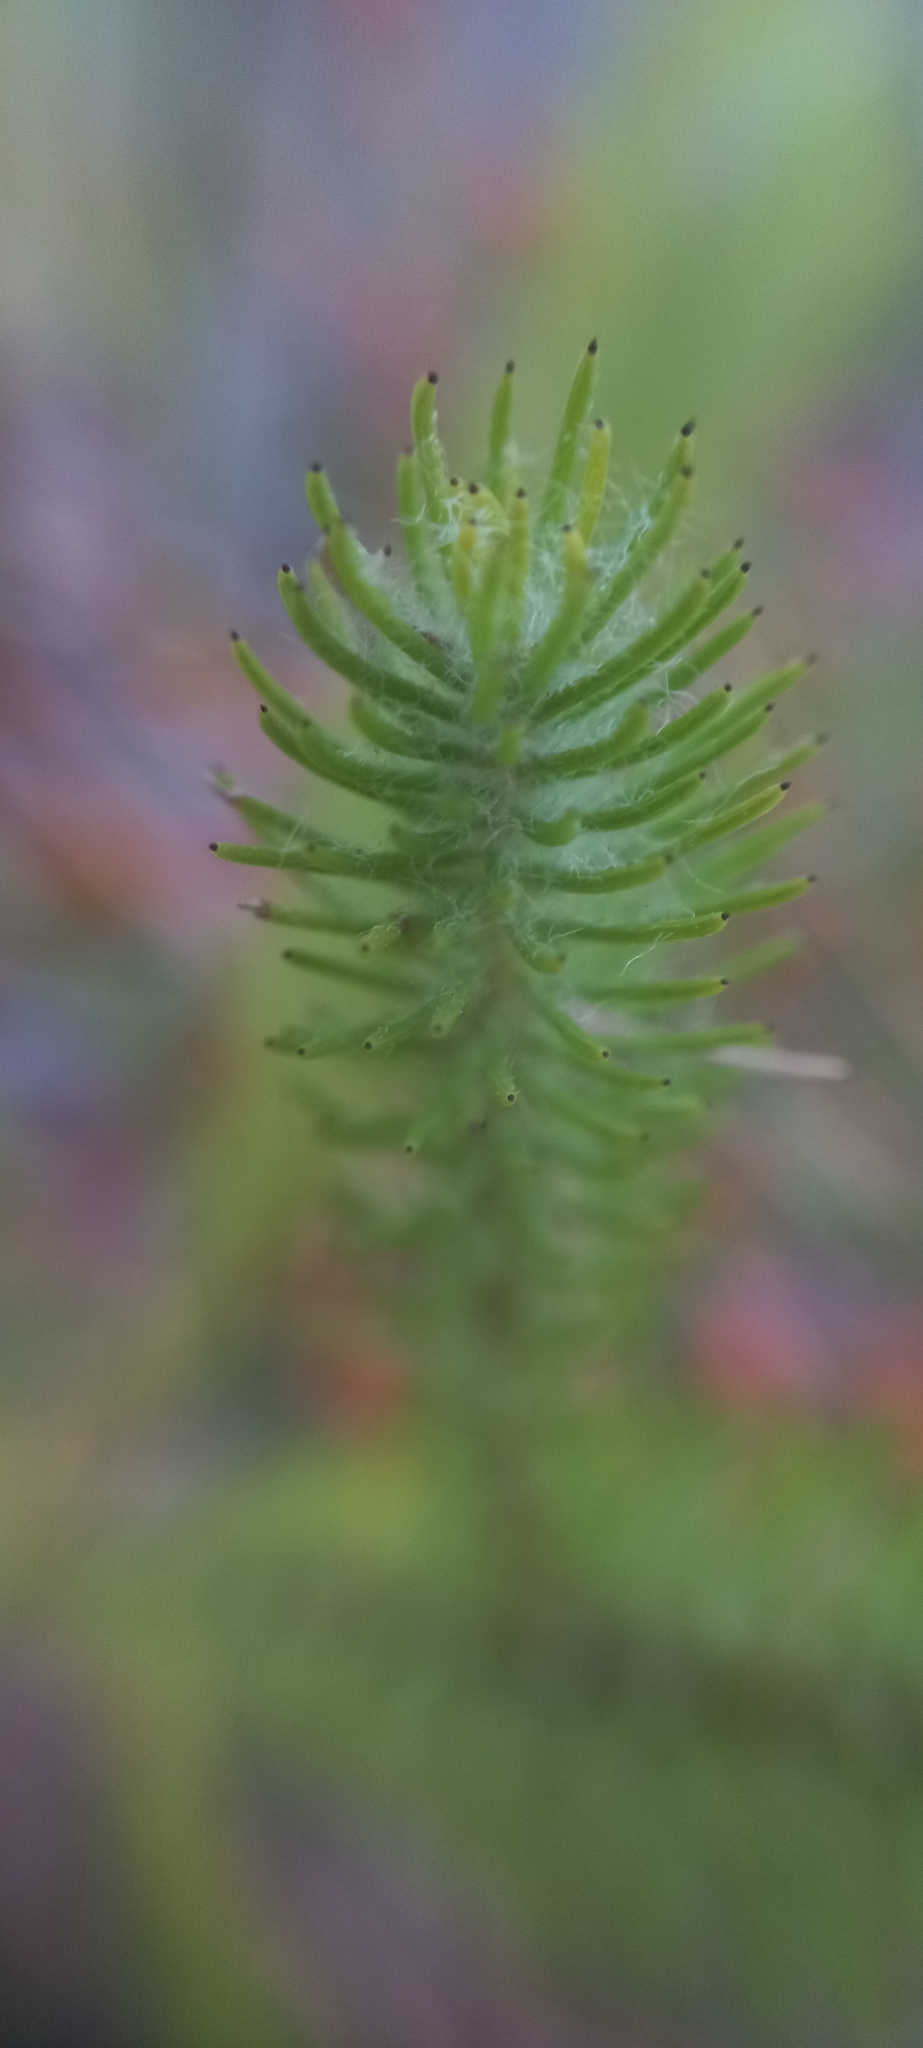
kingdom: Plantae
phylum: Tracheophyta
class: Magnoliopsida
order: Bruniales
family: Bruniaceae
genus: Berzelia
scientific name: Berzelia albiflora
